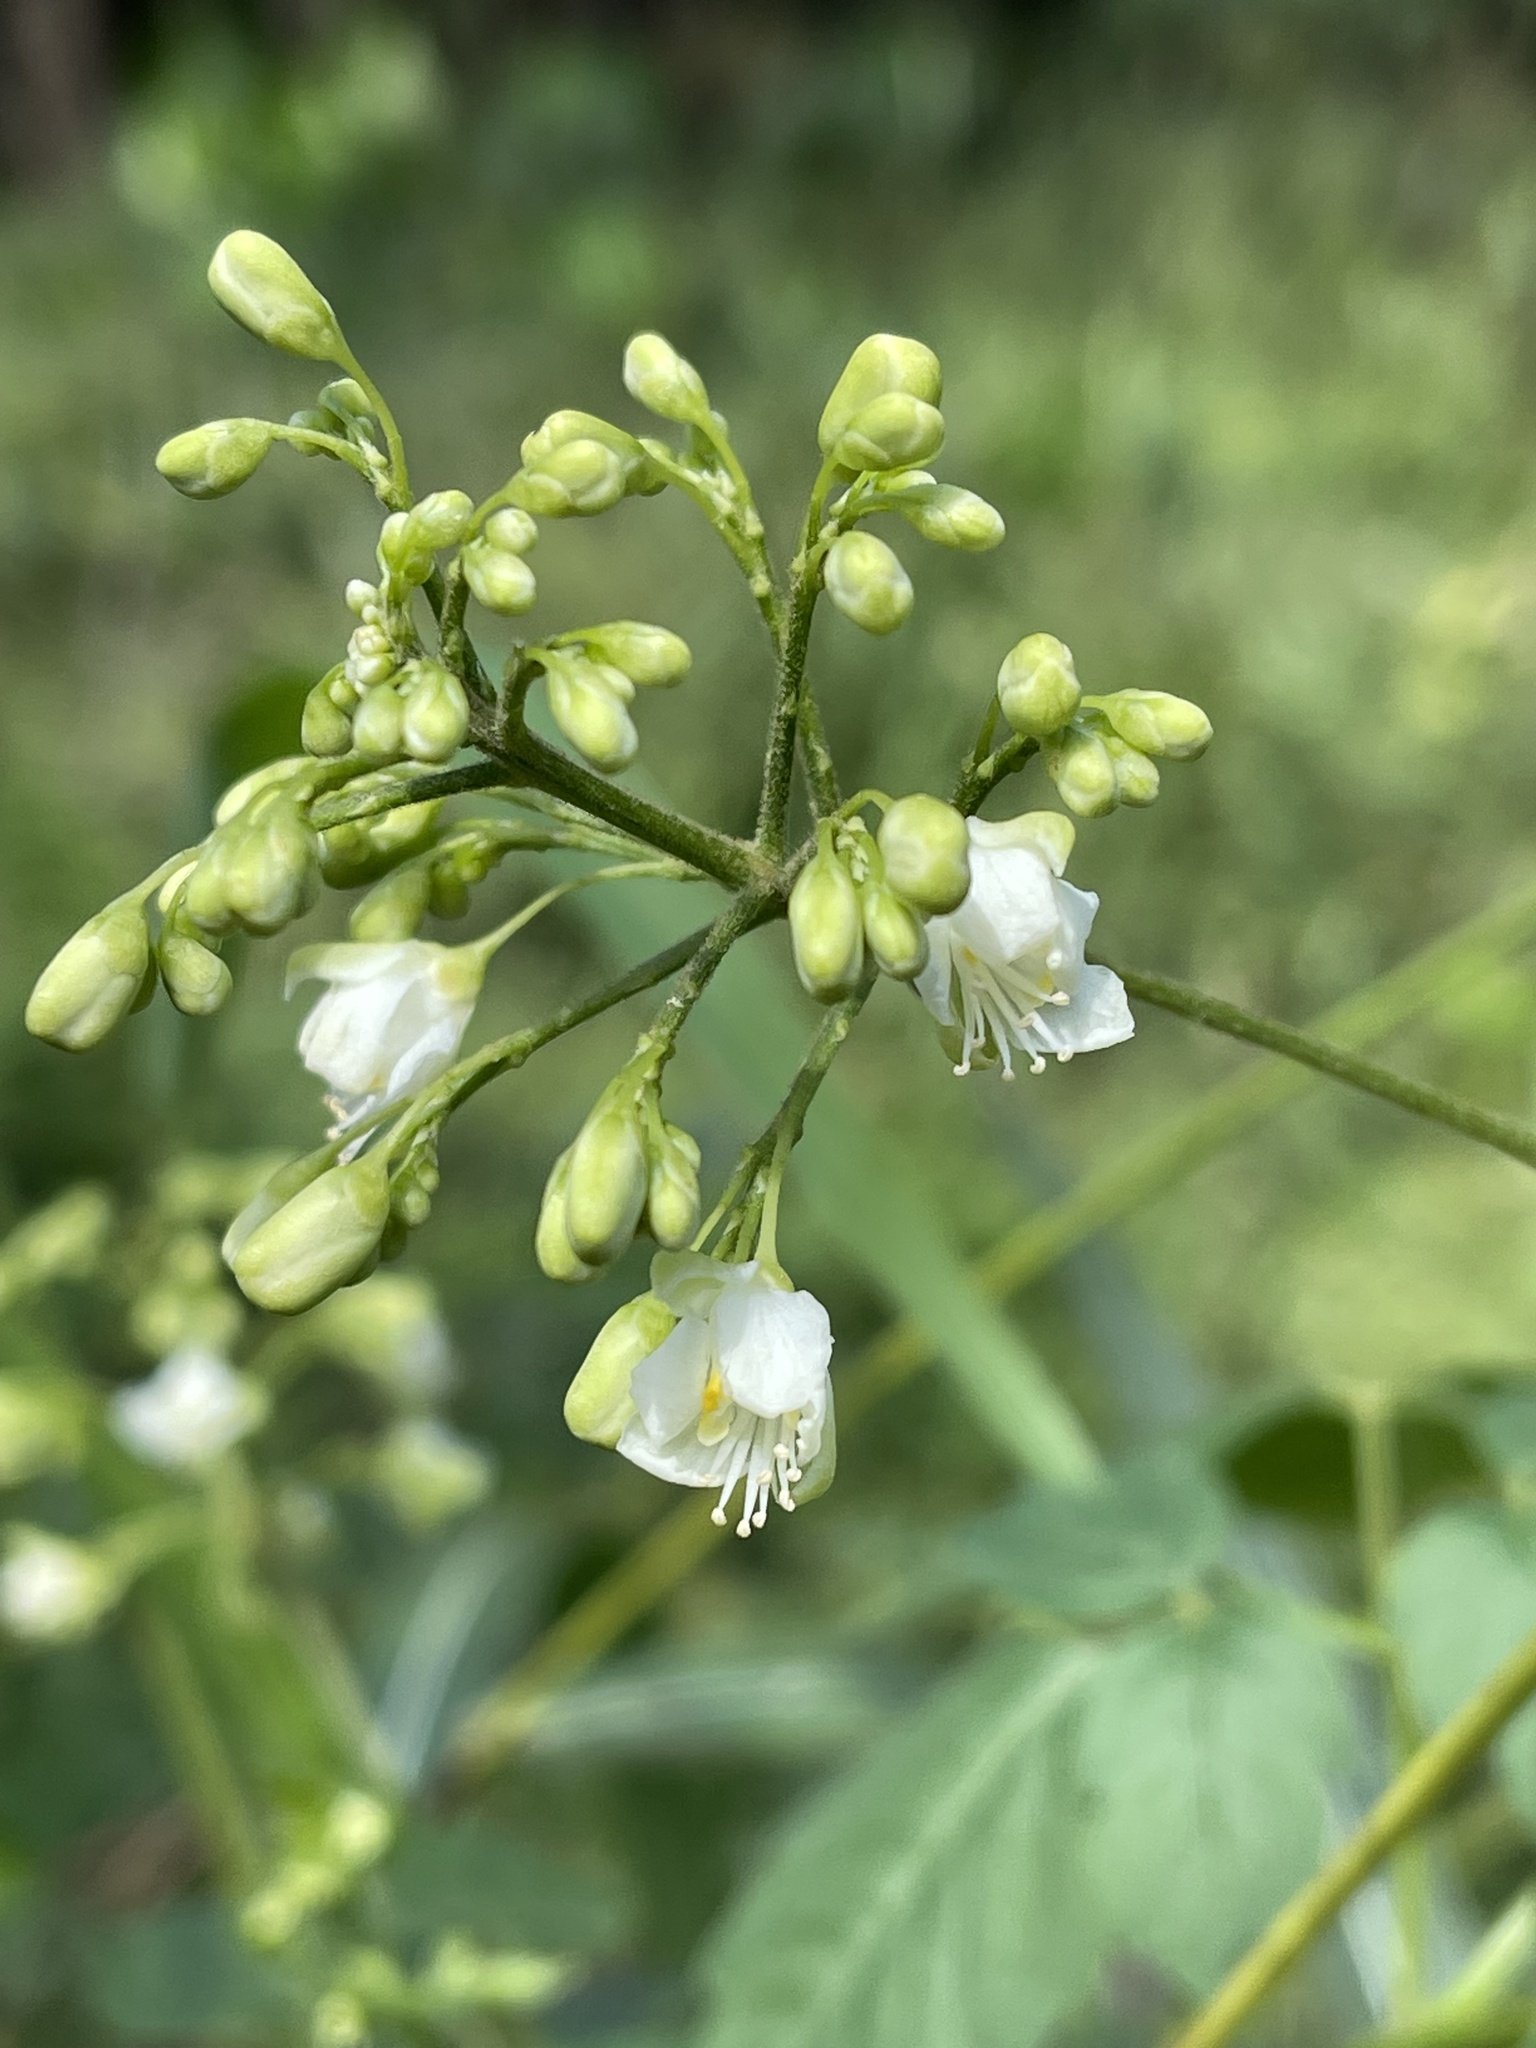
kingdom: Plantae
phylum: Tracheophyta
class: Magnoliopsida
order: Sapindales
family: Sapindaceae
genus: Cardiospermum
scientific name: Cardiospermum grandiflorum
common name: Balloon vine
